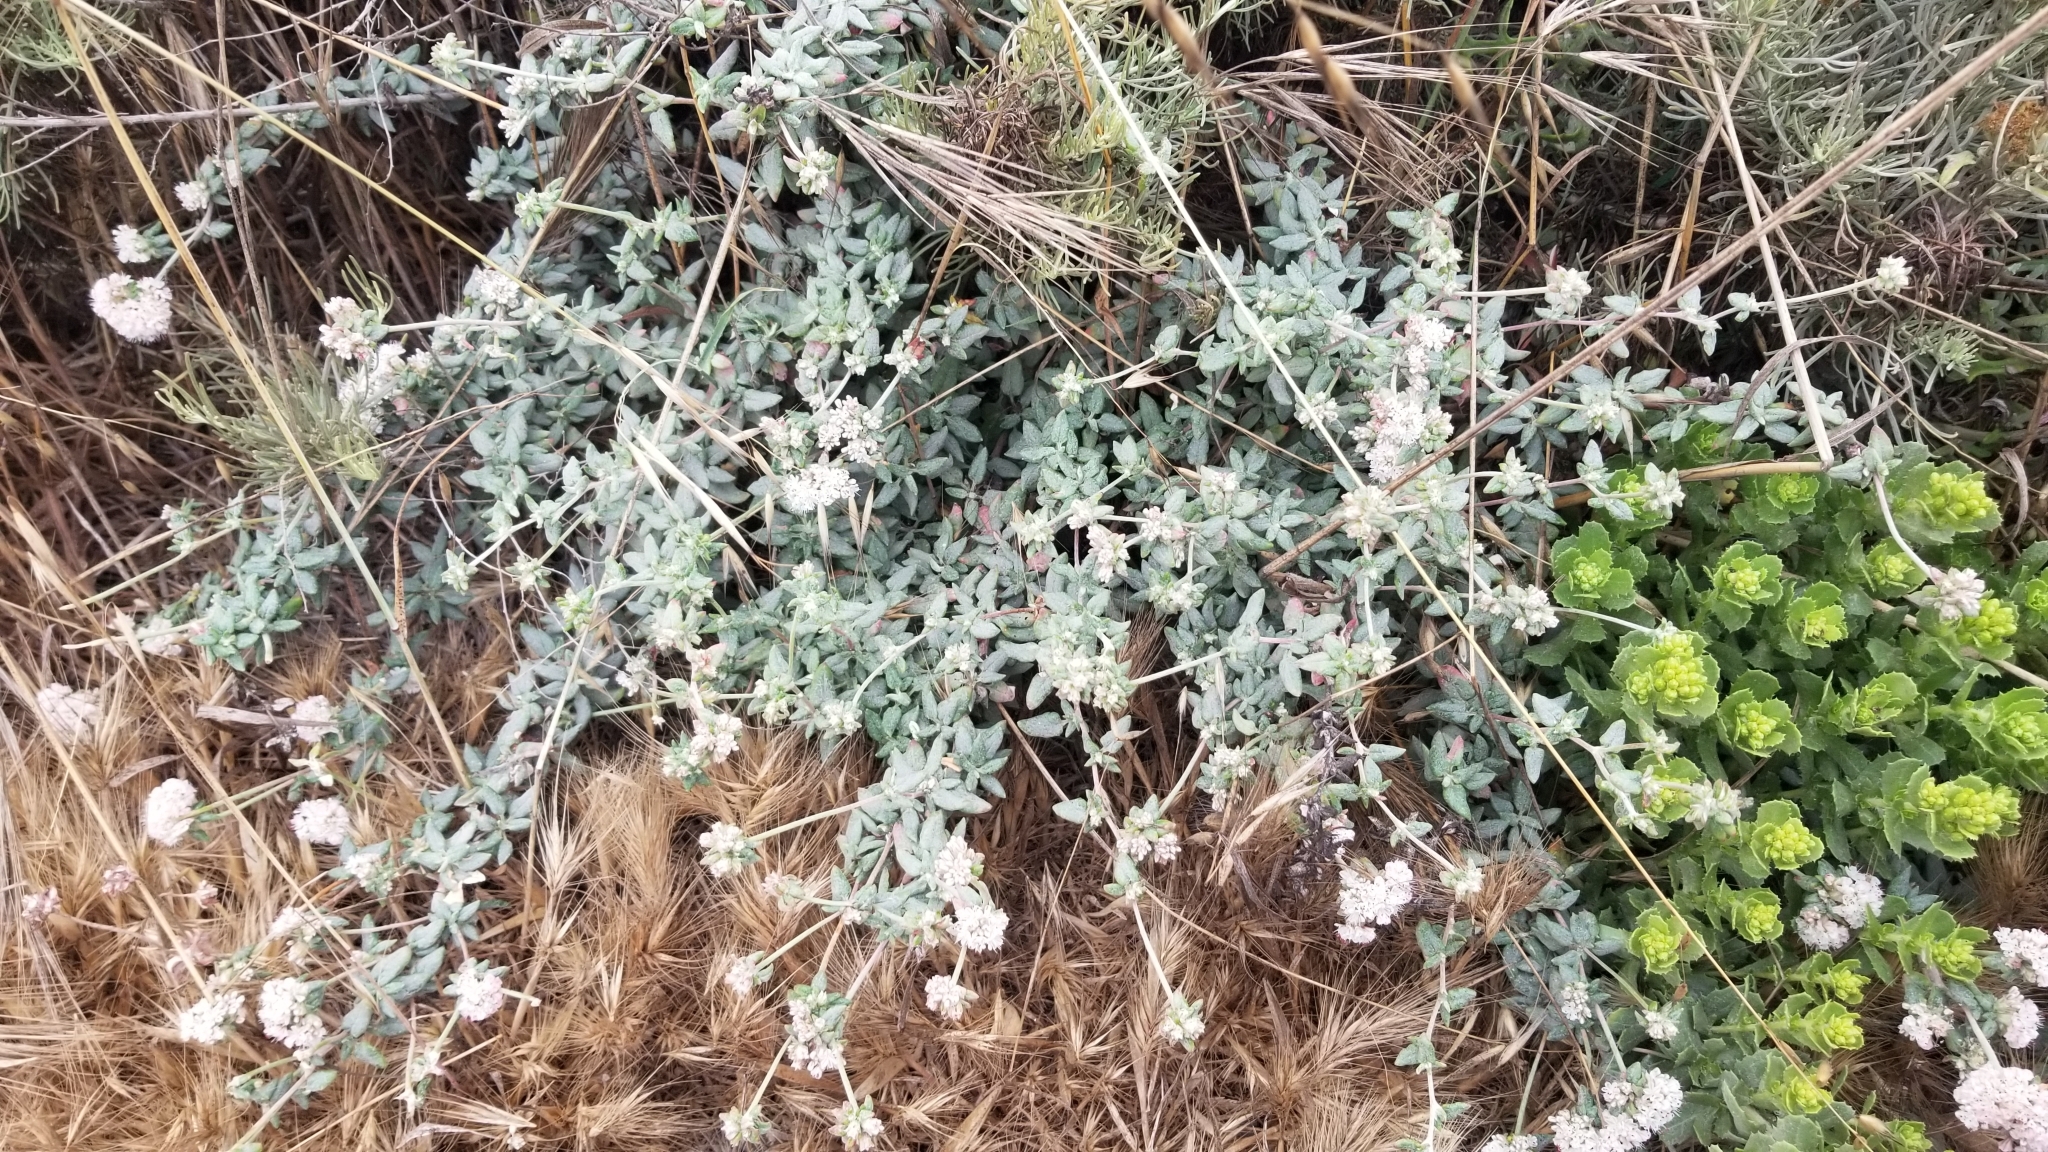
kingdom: Plantae
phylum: Tracheophyta
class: Magnoliopsida
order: Caryophyllales
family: Polygonaceae
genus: Eriogonum
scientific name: Eriogonum parvifolium
